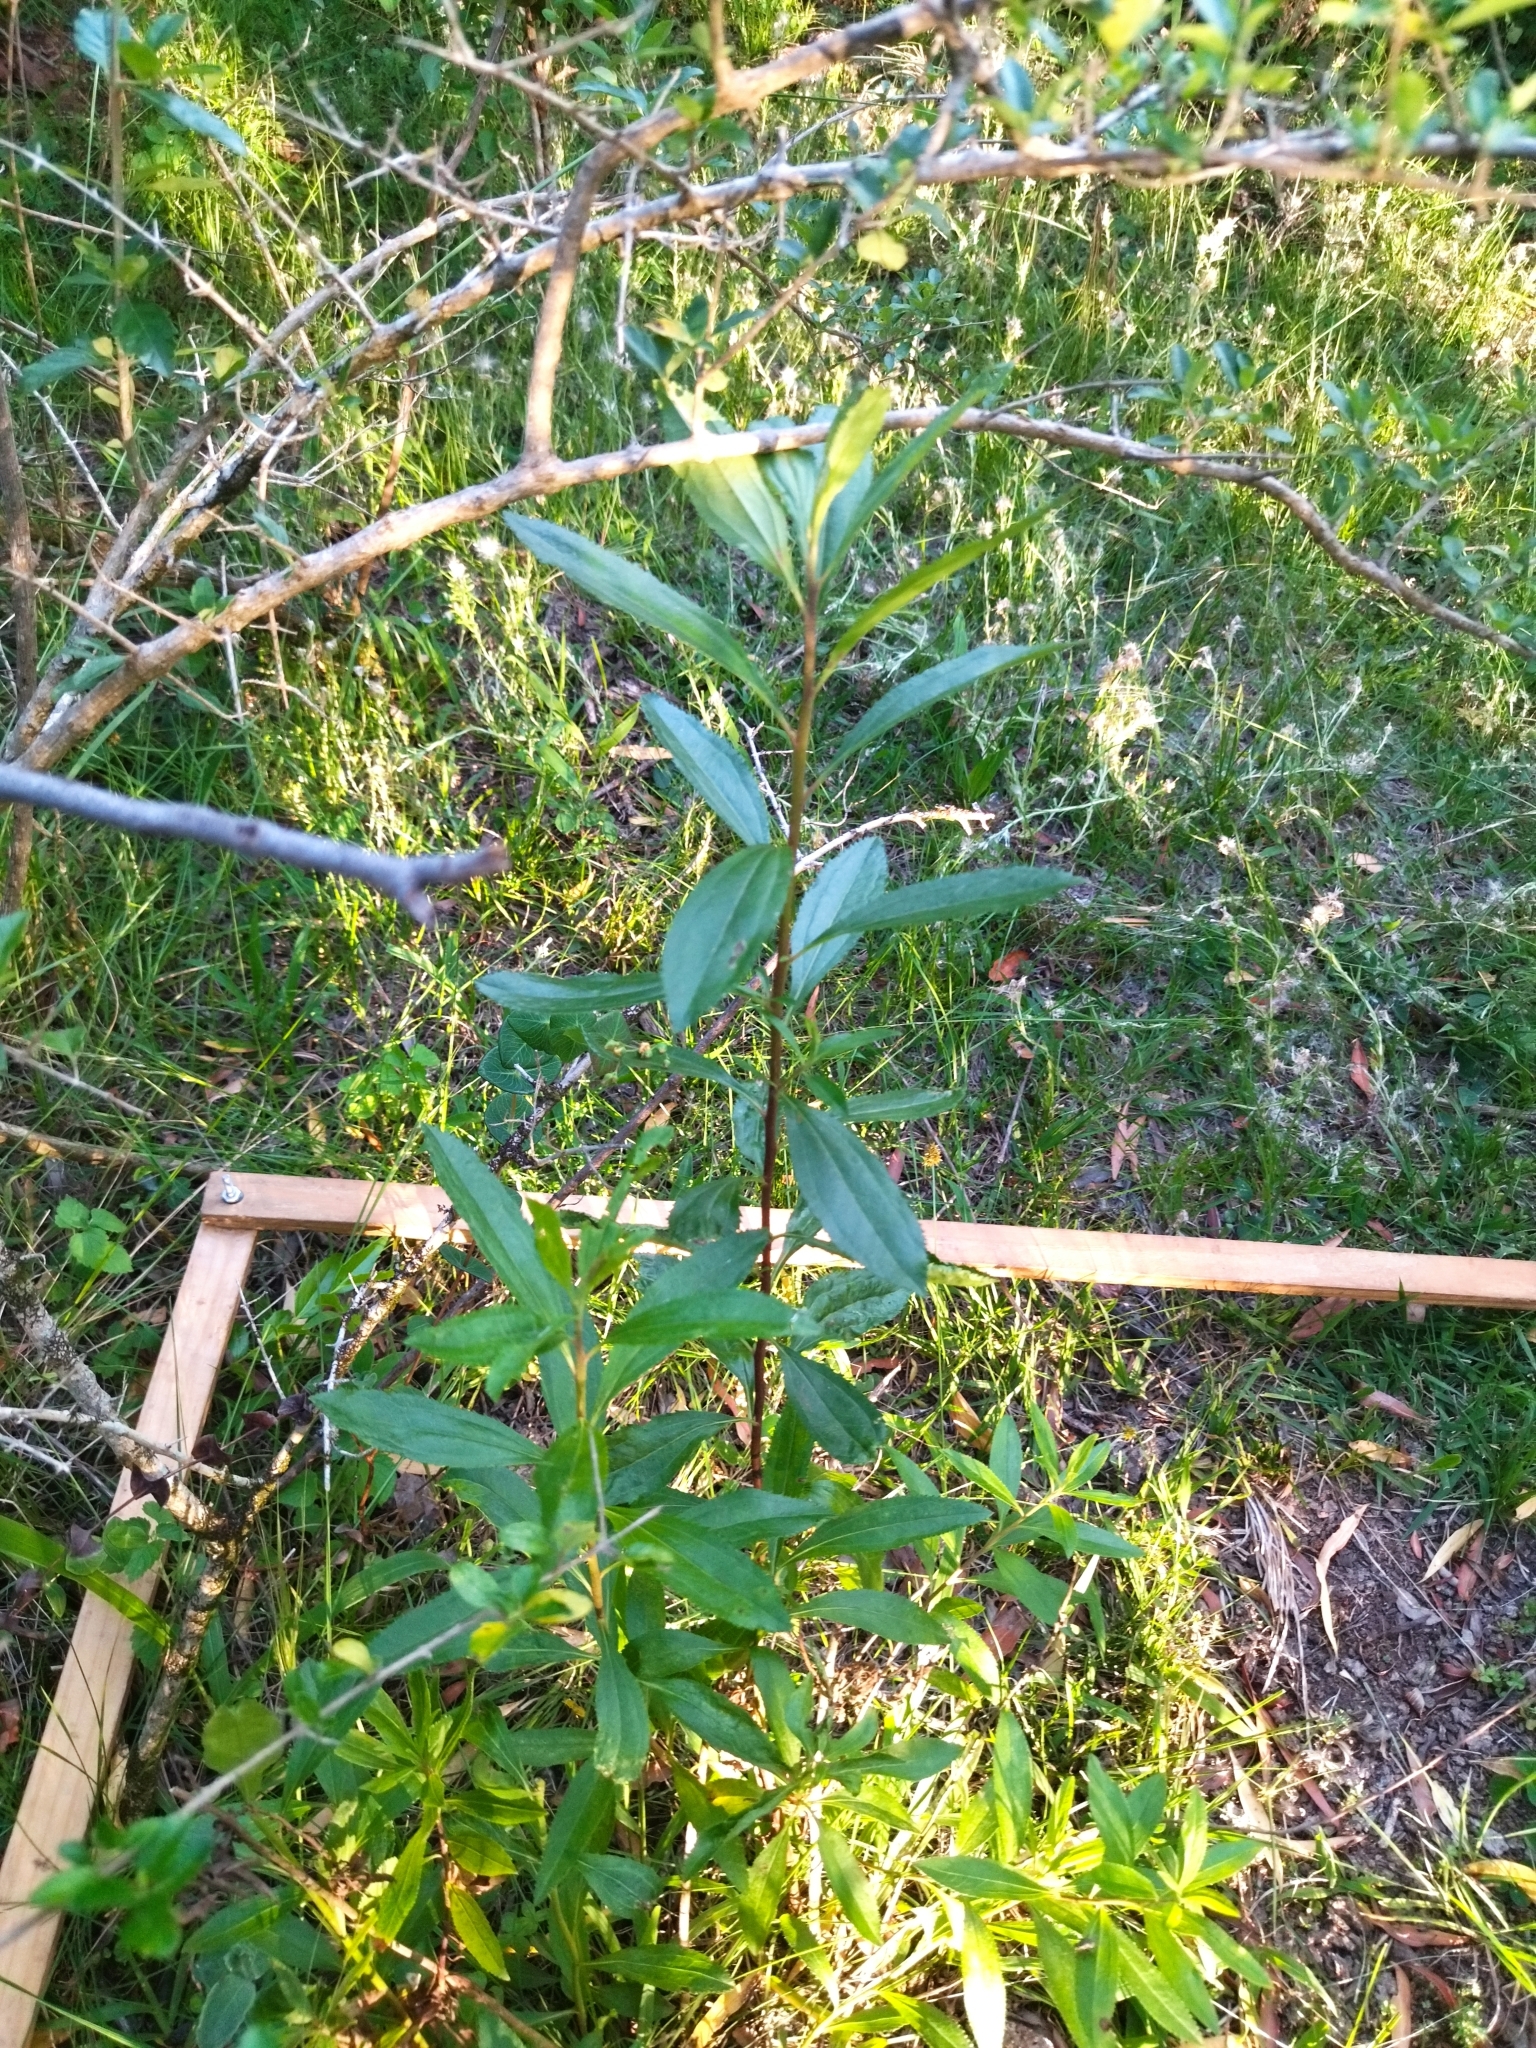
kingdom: Plantae
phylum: Tracheophyta
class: Magnoliopsida
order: Asterales
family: Asteraceae
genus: Baccharis
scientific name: Baccharis punctulata
